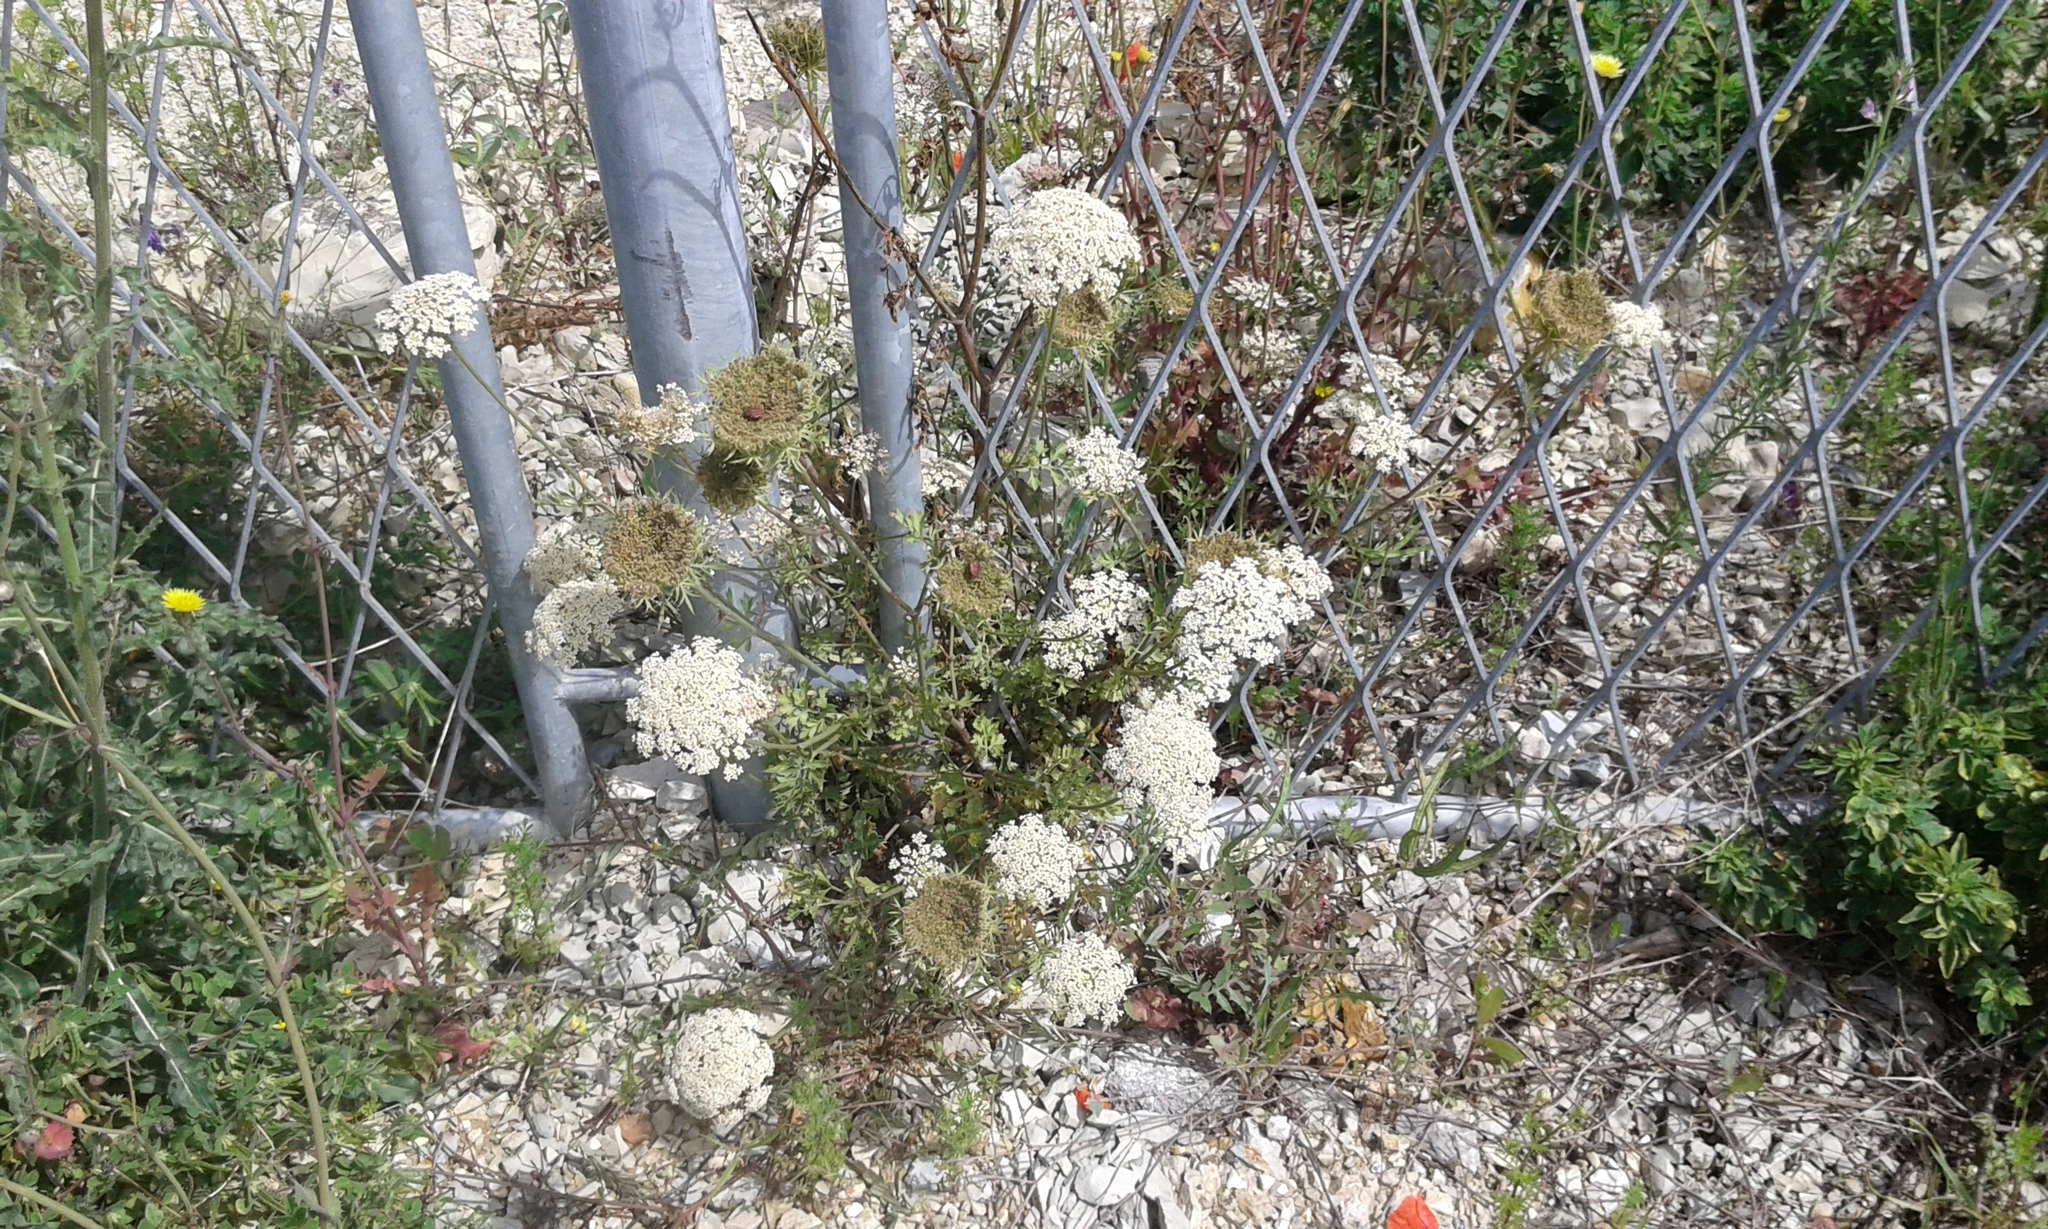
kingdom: Plantae
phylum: Tracheophyta
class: Magnoliopsida
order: Apiales
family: Apiaceae
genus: Daucus
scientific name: Daucus carota
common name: Wild carrot
